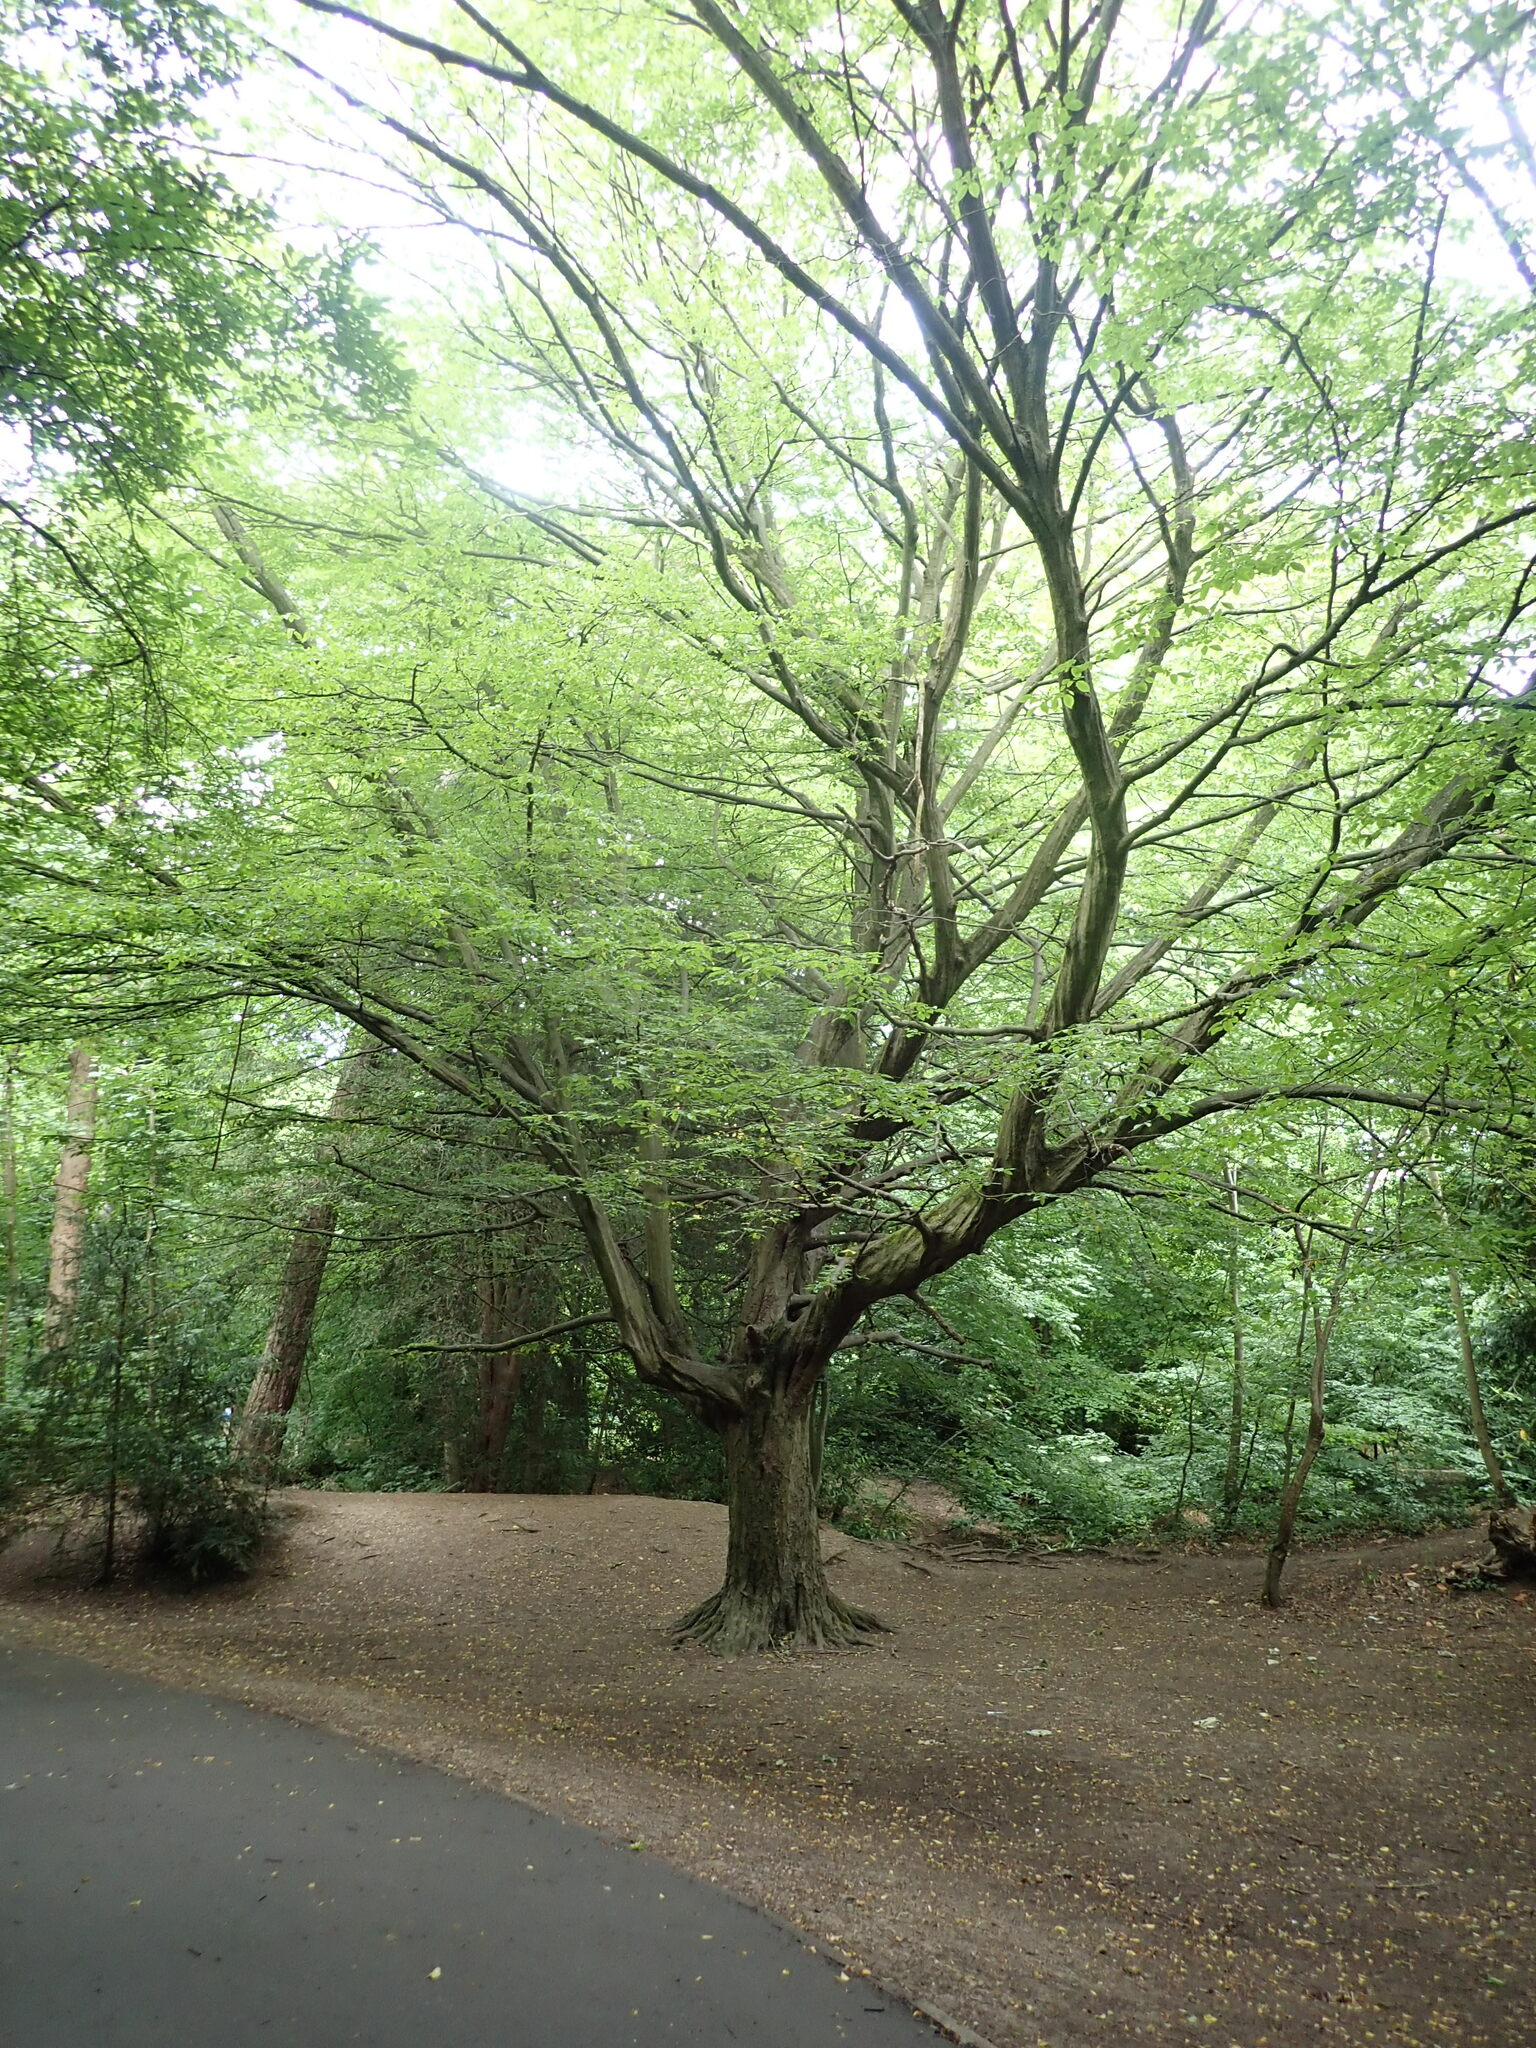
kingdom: Plantae
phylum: Tracheophyta
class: Magnoliopsida
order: Fagales
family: Betulaceae
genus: Carpinus
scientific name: Carpinus betulus
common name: Hornbeam
